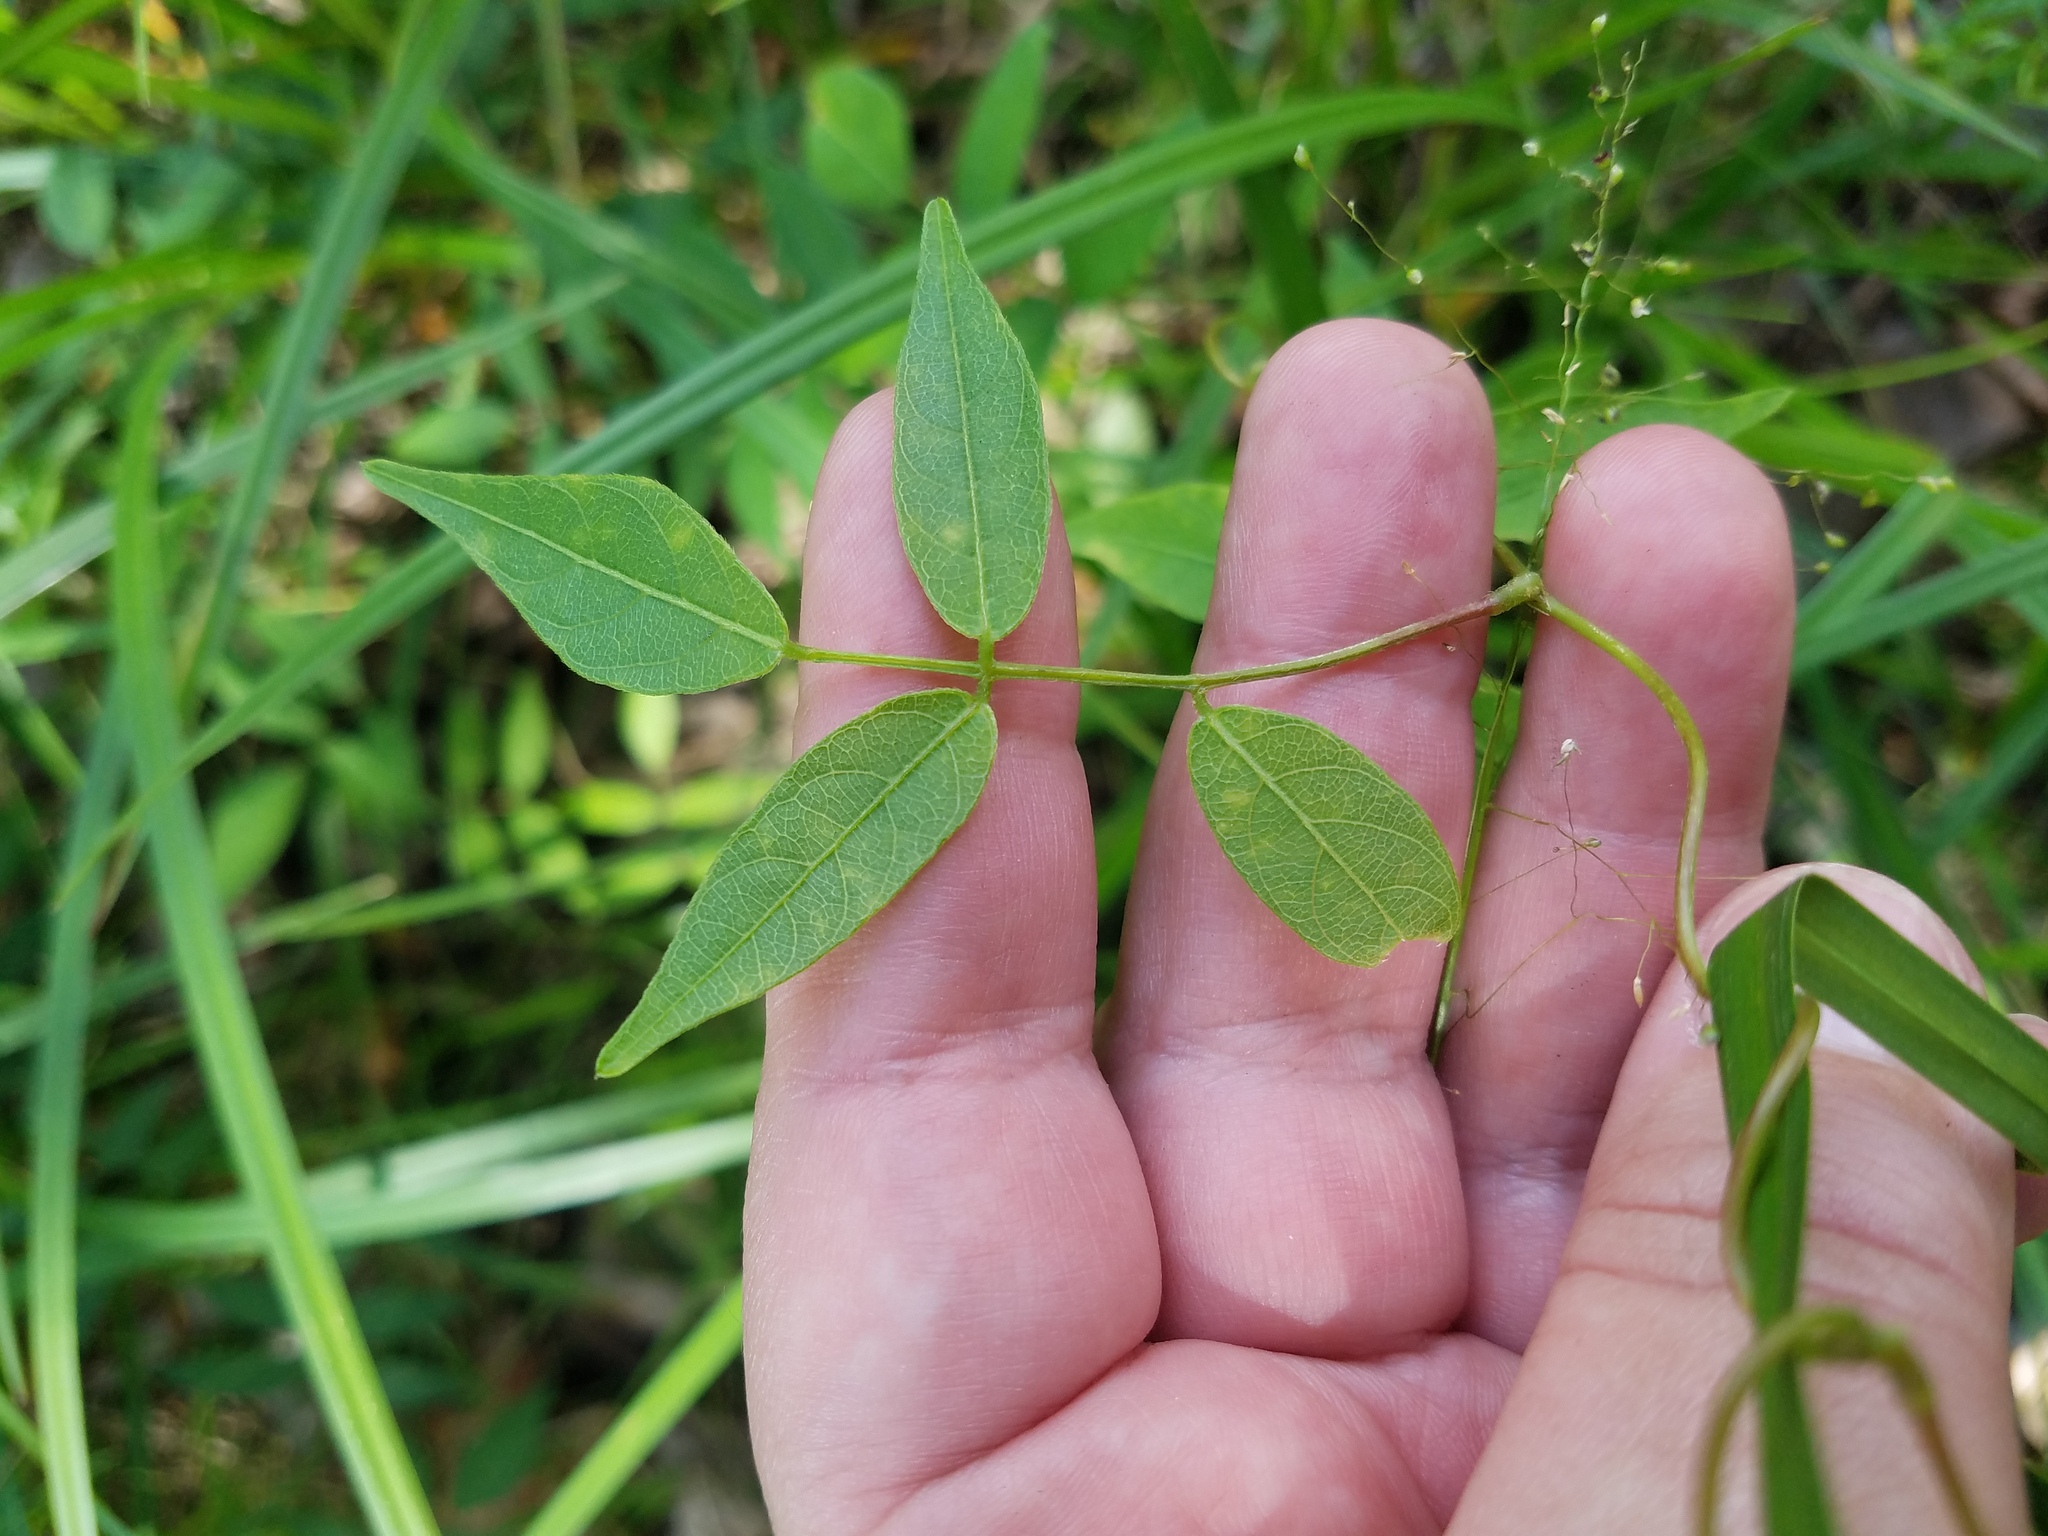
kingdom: Plantae
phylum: Tracheophyta
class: Magnoliopsida
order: Fabales
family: Fabaceae
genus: Apios
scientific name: Apios americana
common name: American potato-bean
